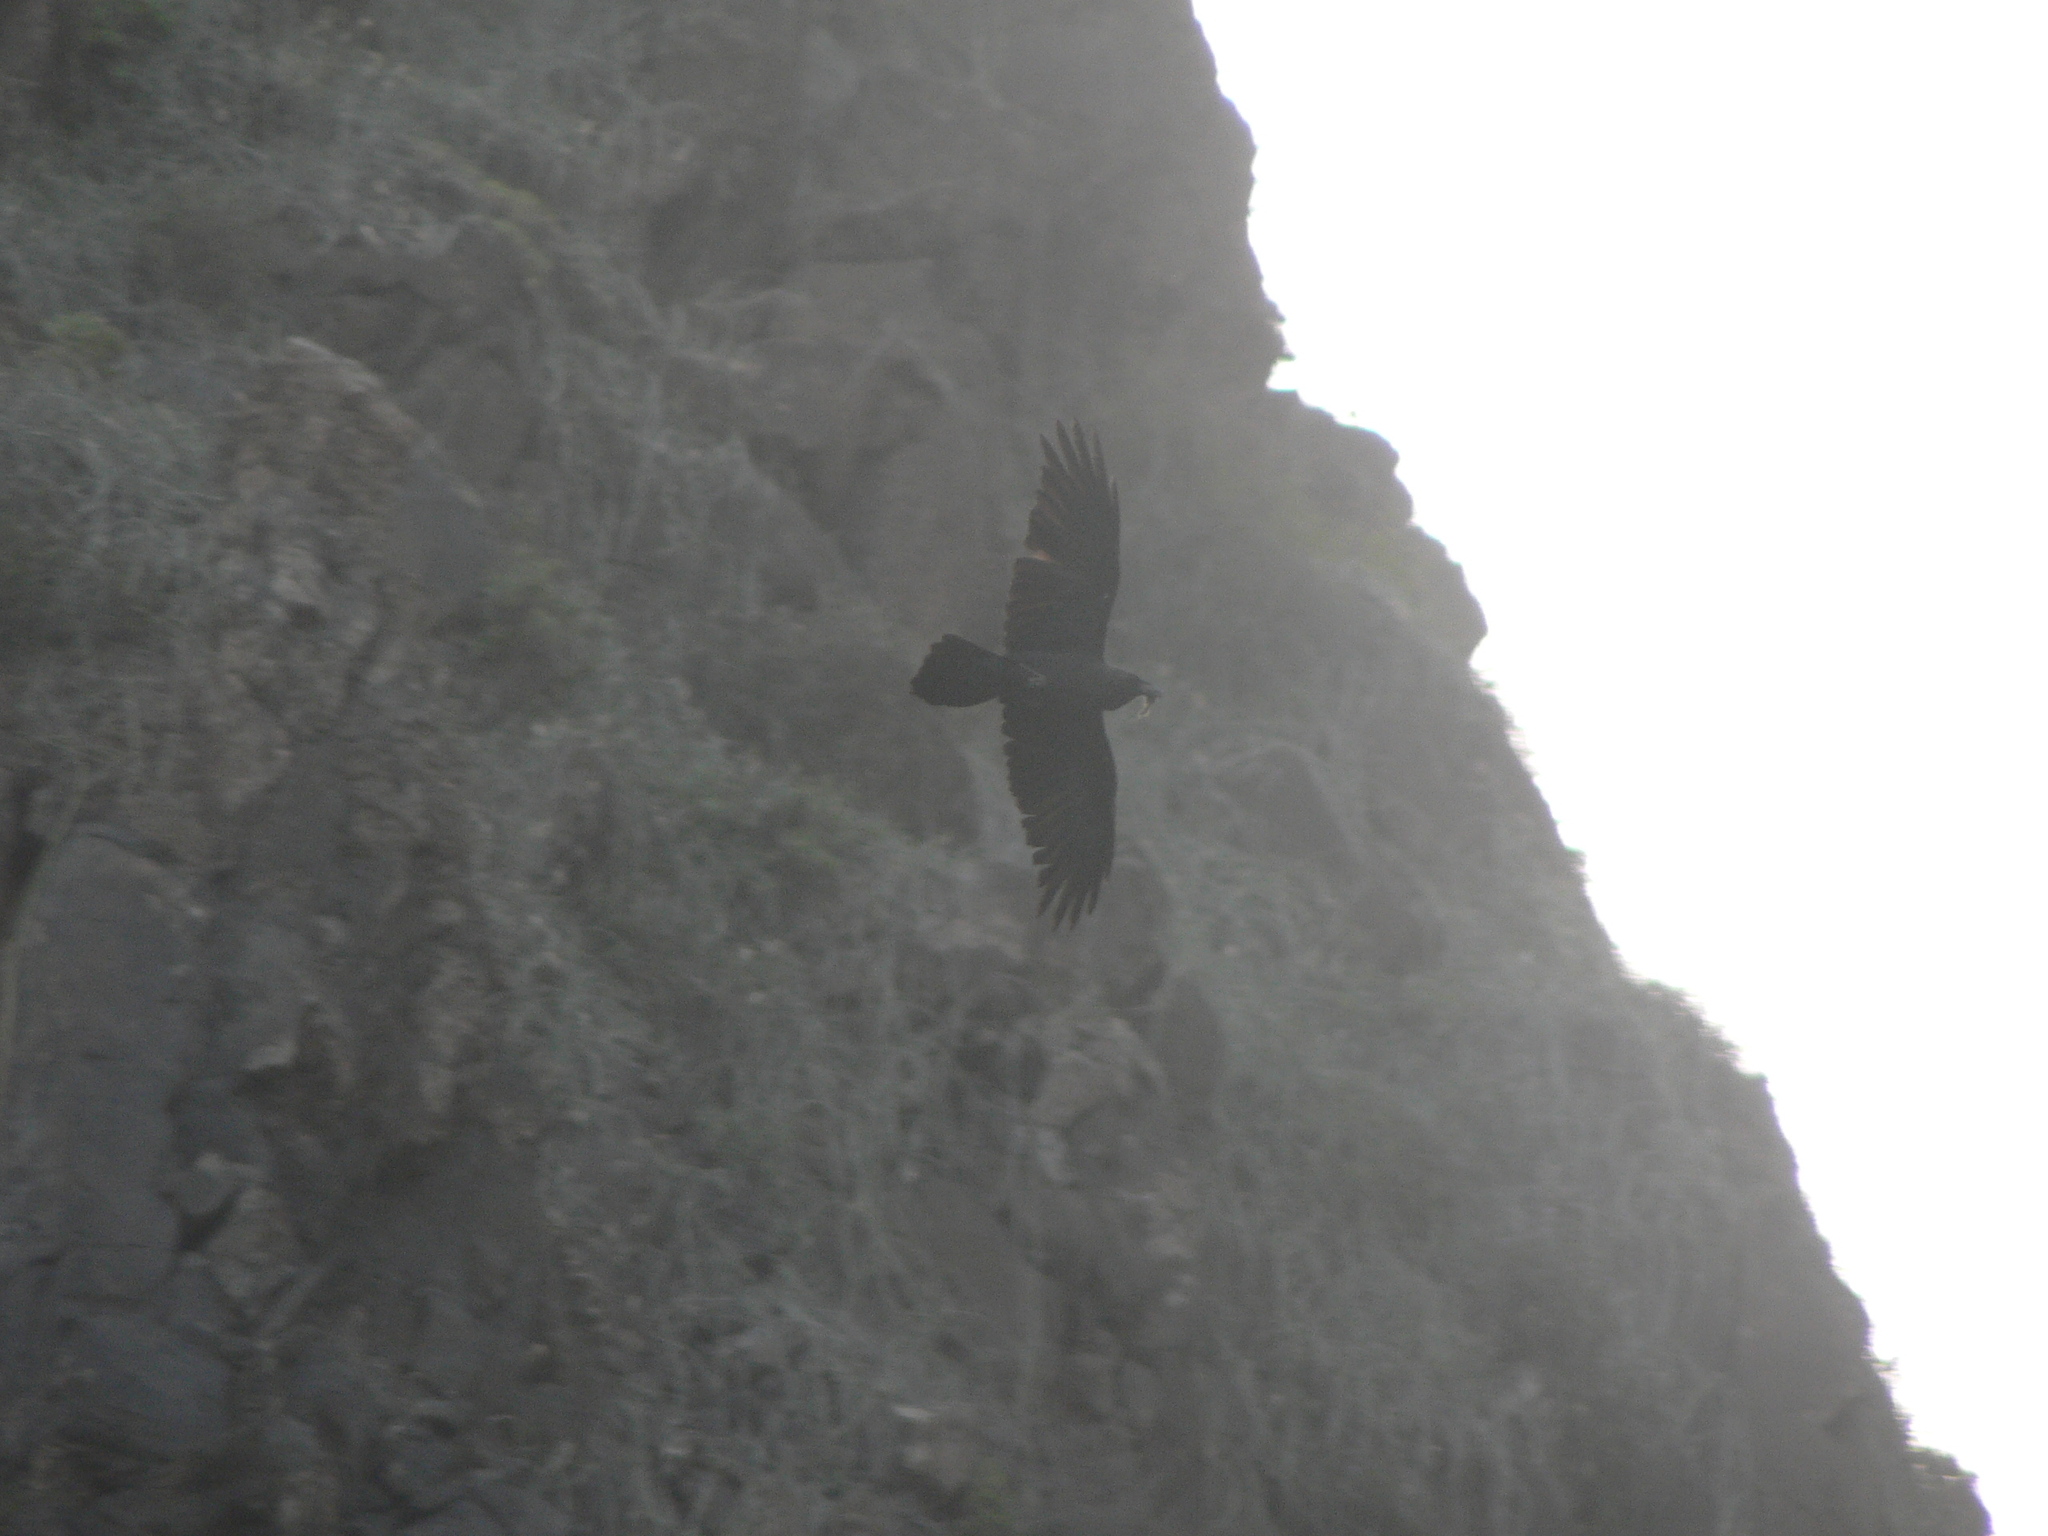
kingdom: Animalia
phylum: Chordata
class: Aves
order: Passeriformes
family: Corvidae
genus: Corvus
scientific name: Corvus ruficollis
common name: Brown-necked raven
